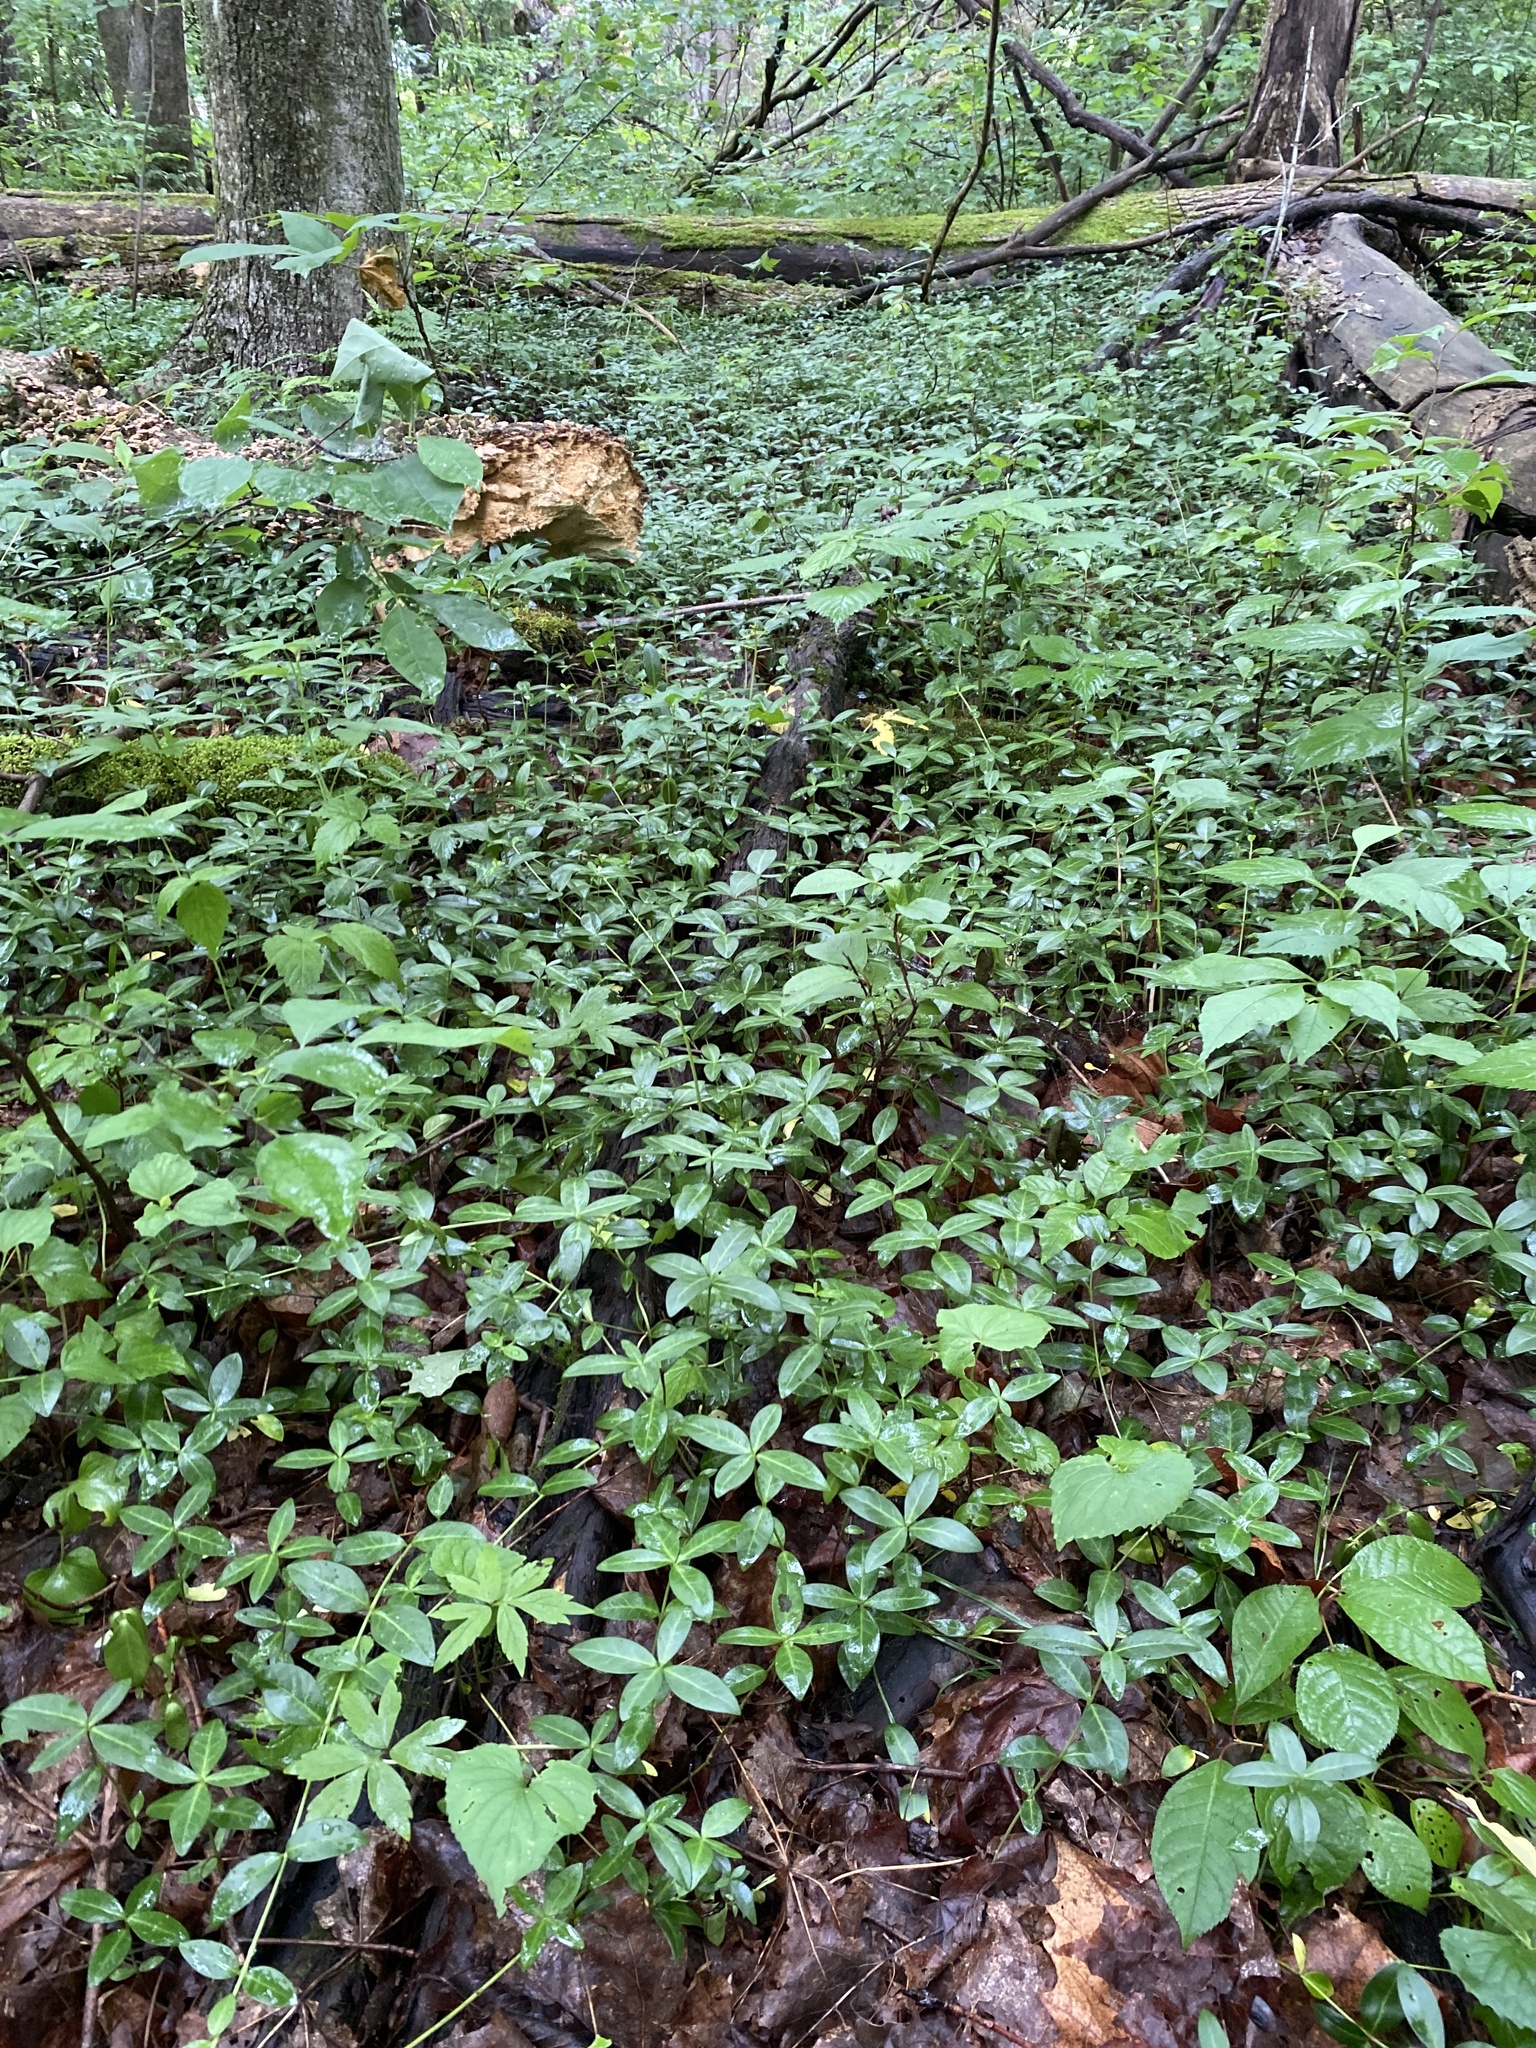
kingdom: Plantae
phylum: Tracheophyta
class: Magnoliopsida
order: Gentianales
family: Apocynaceae
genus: Vinca
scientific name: Vinca minor
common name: Lesser periwinkle
